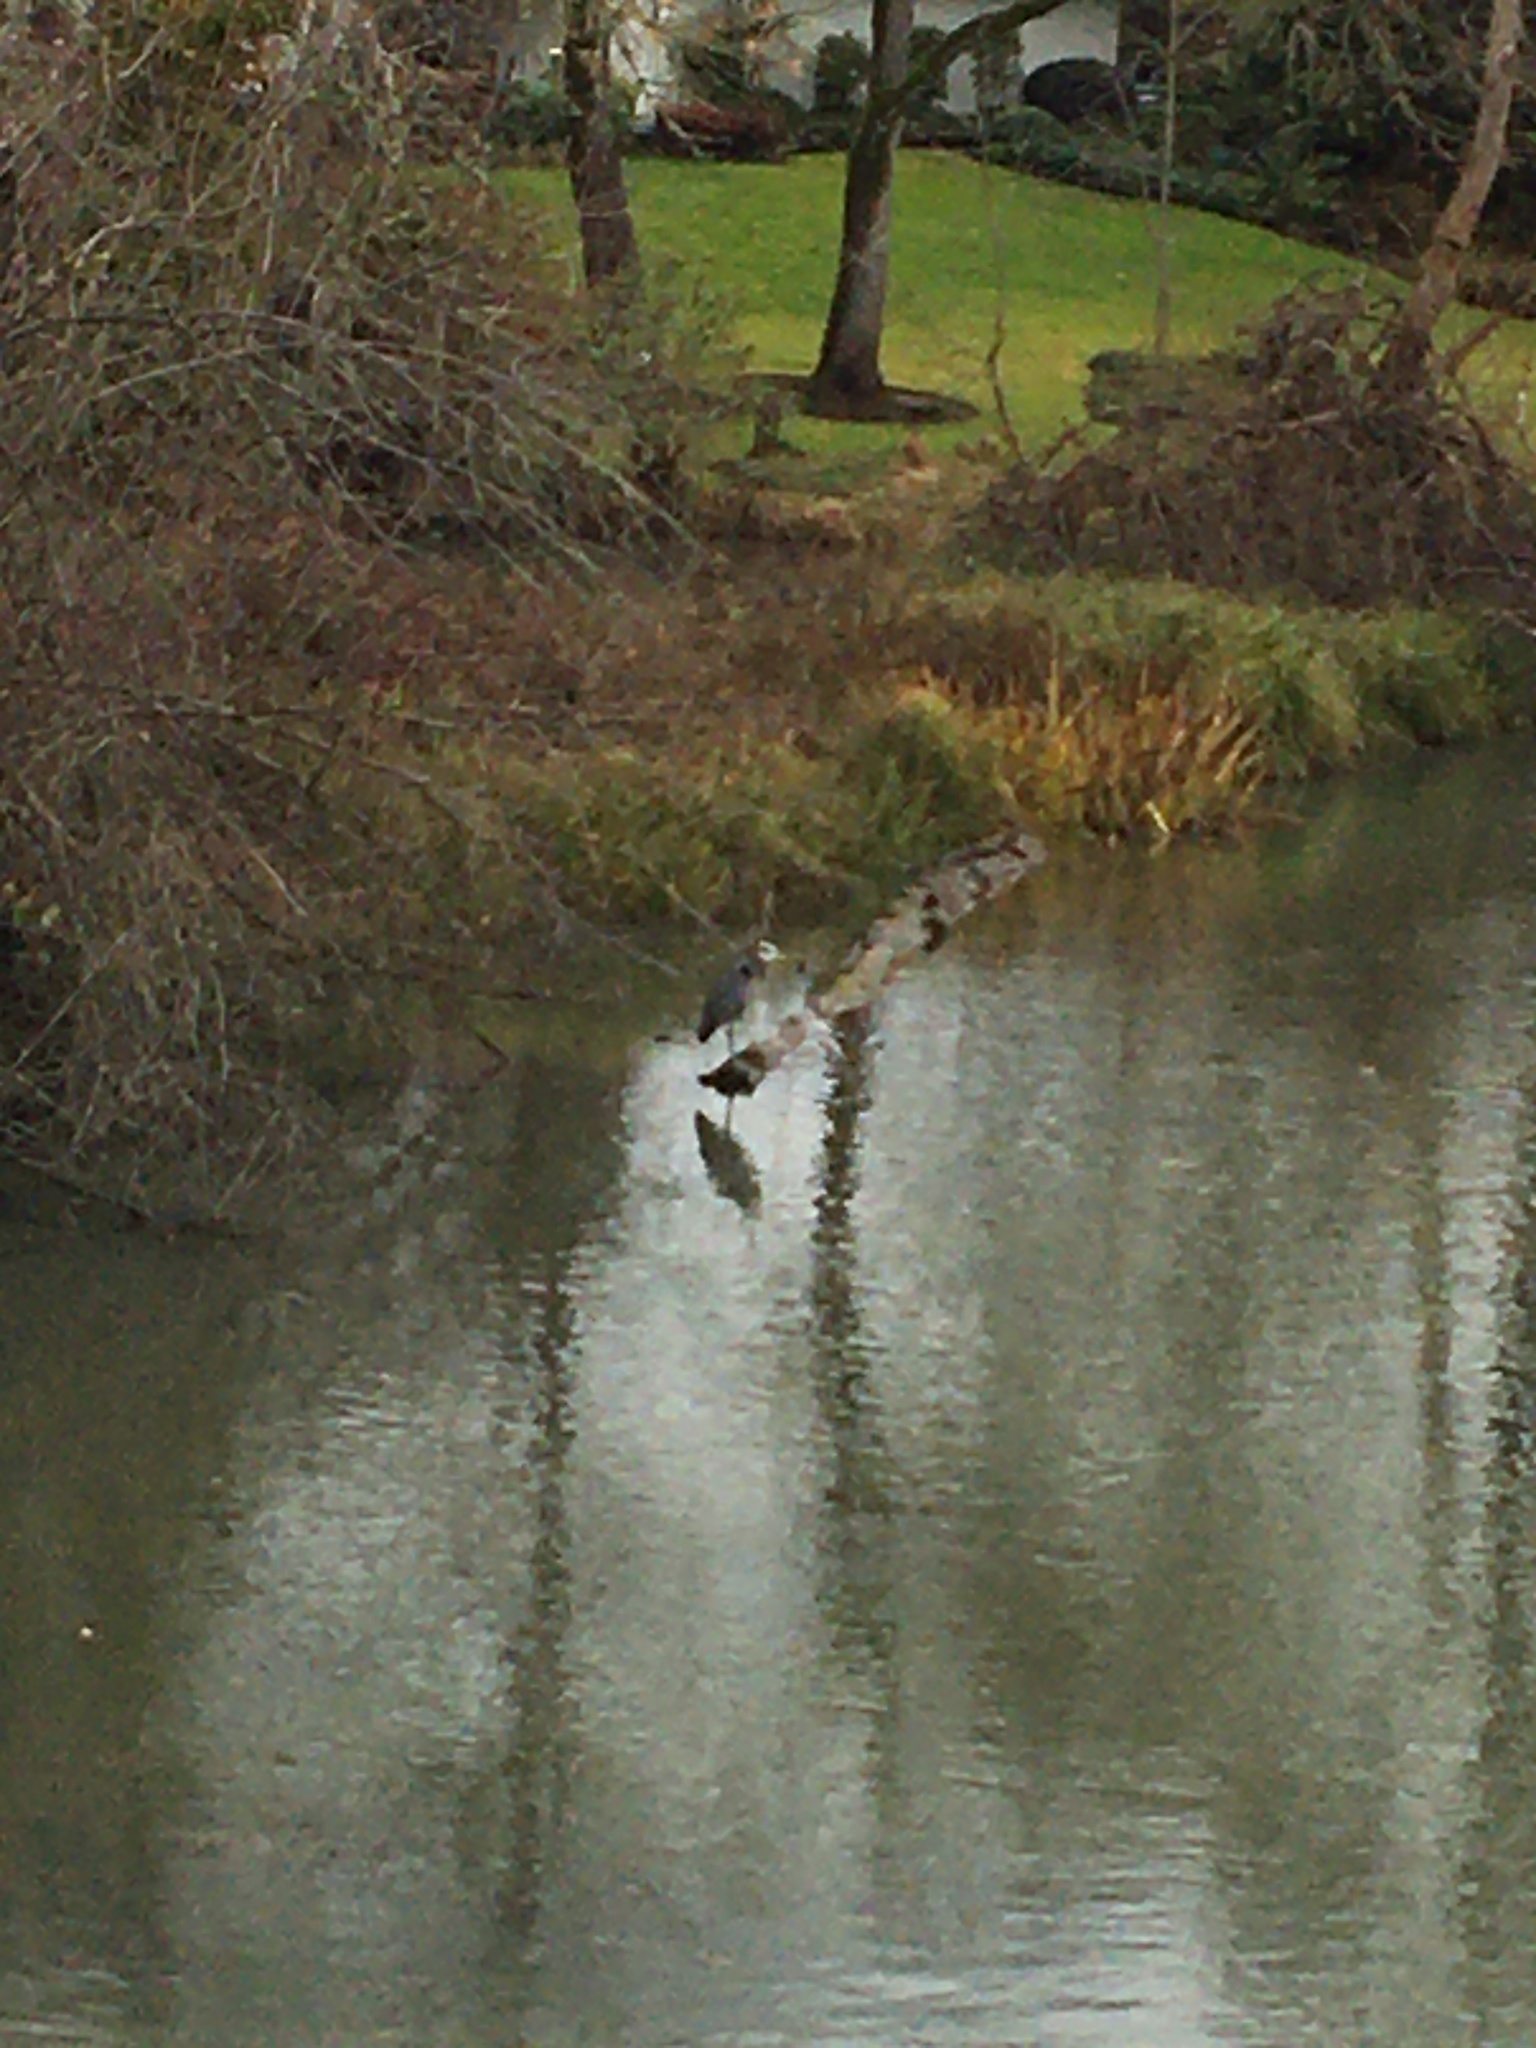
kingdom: Animalia
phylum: Chordata
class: Aves
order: Pelecaniformes
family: Ardeidae
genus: Ardea
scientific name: Ardea herodias
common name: Great blue heron
